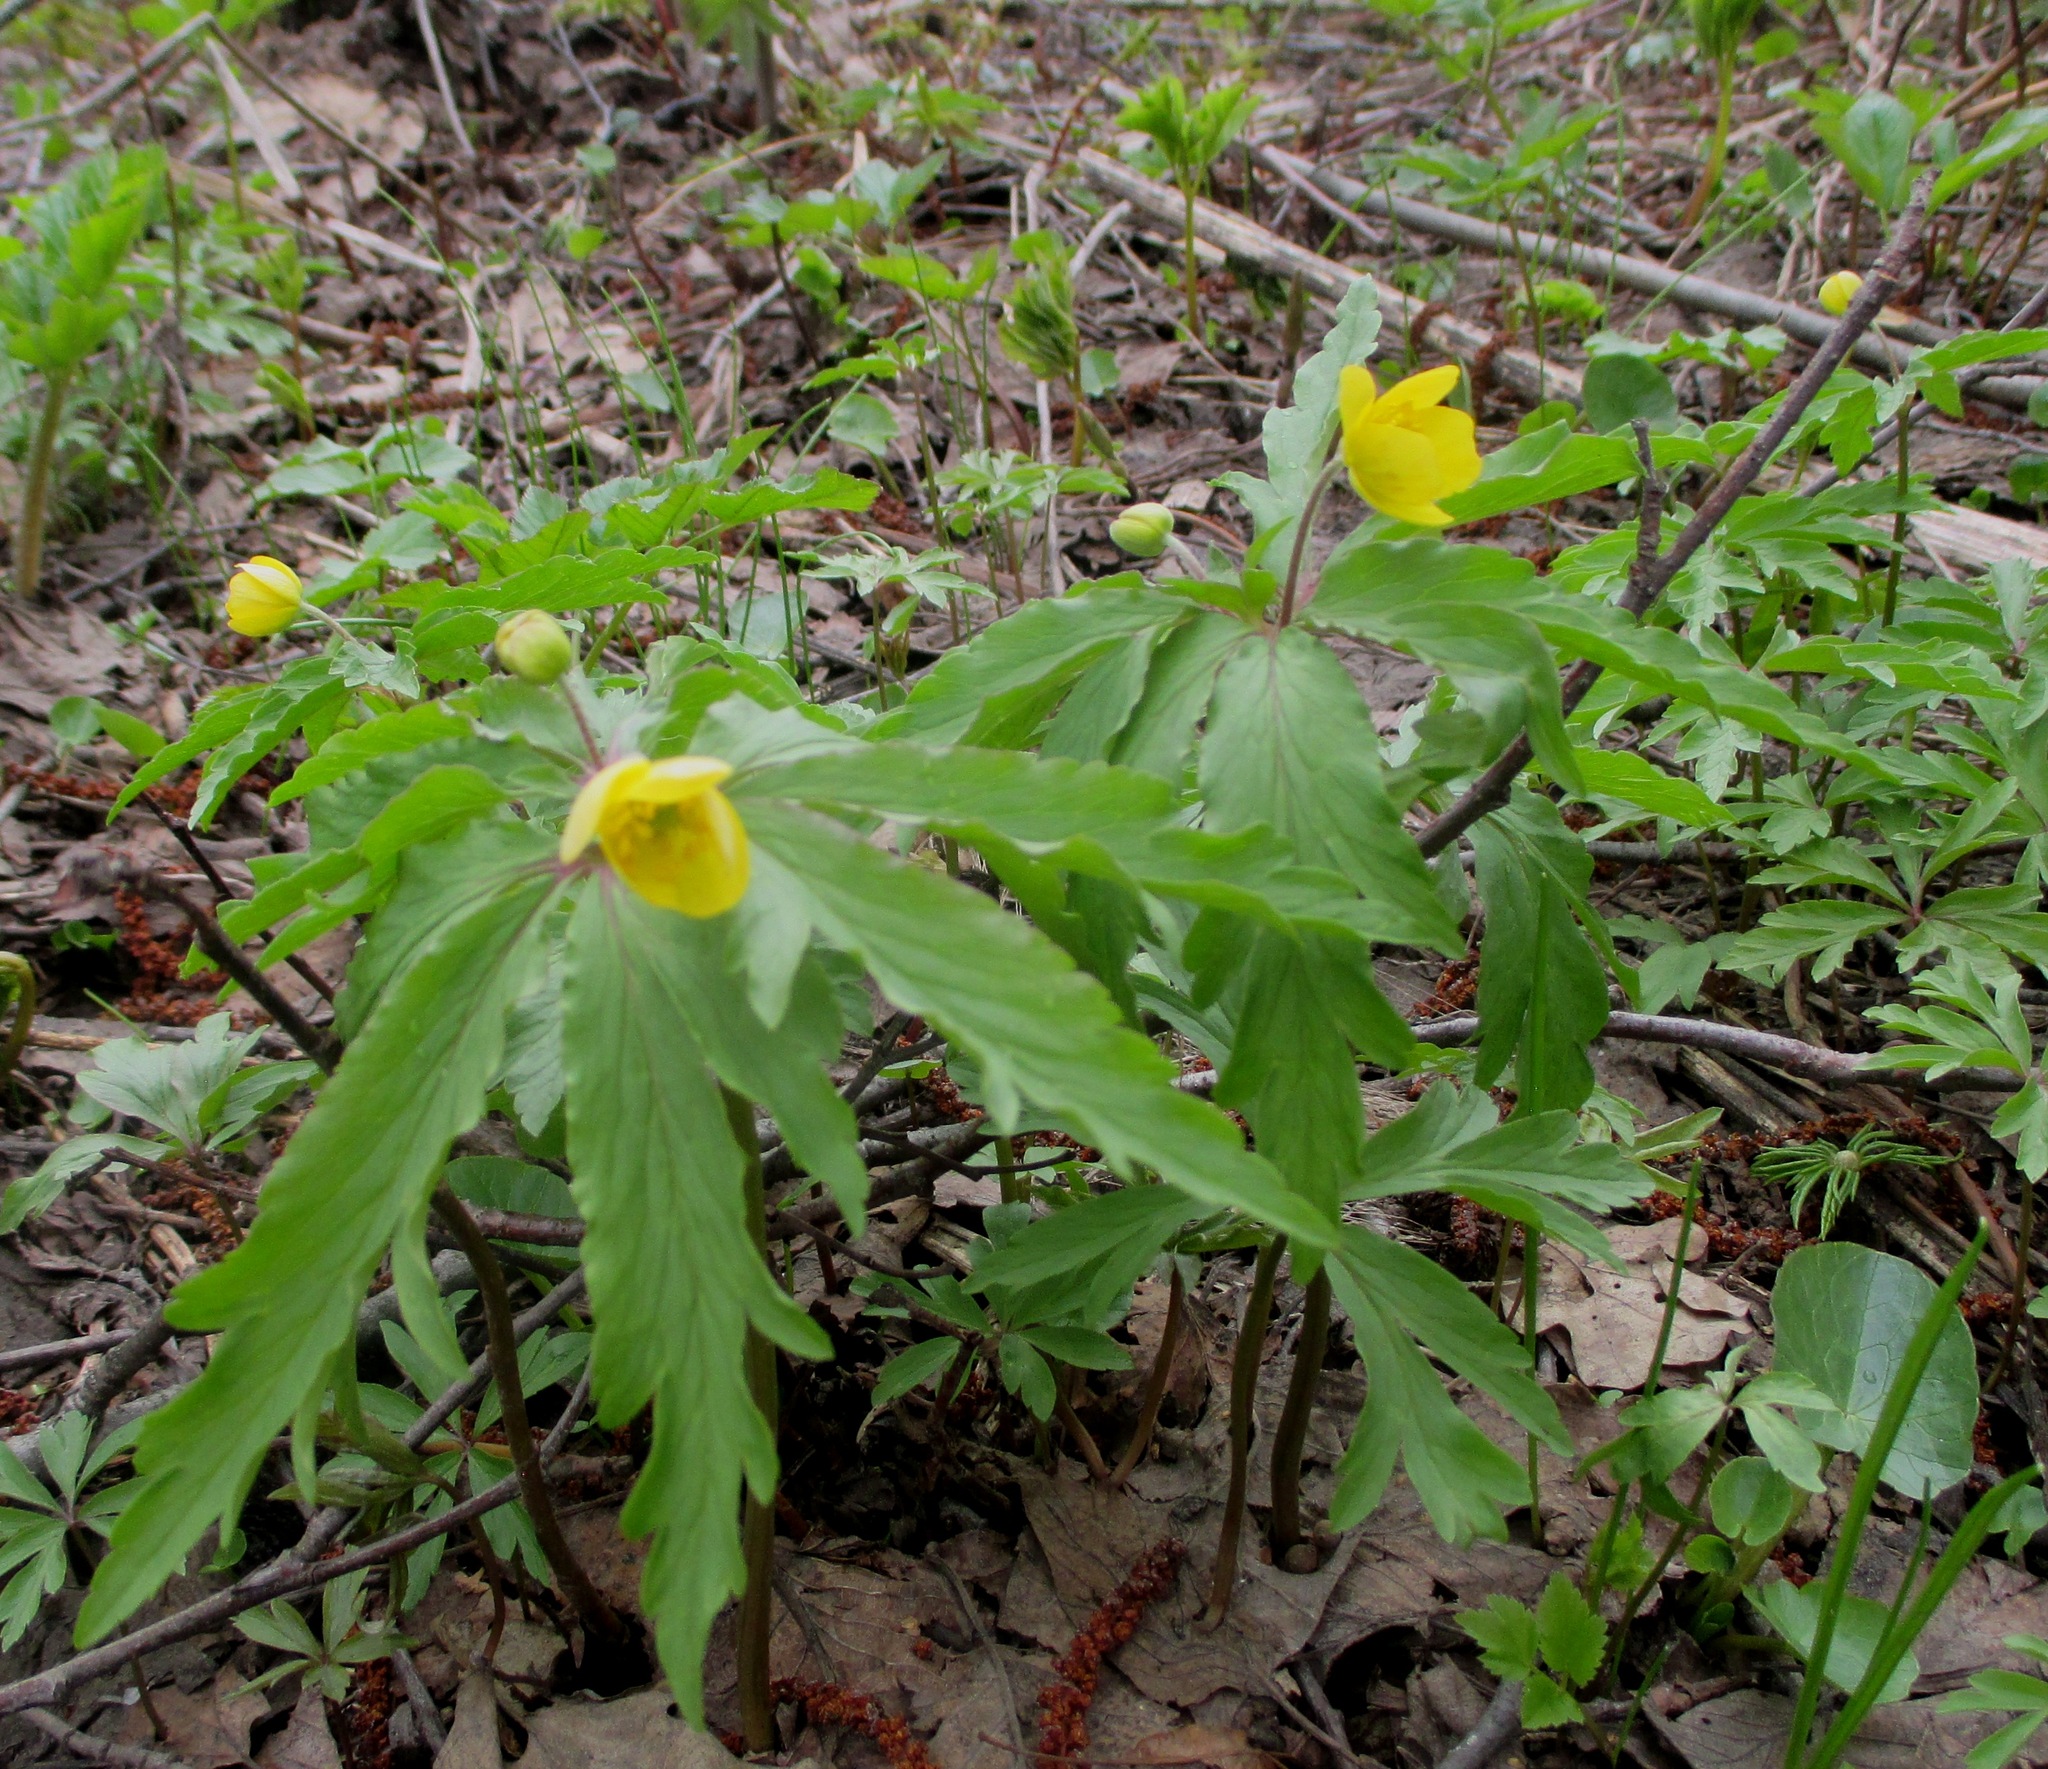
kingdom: Plantae
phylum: Tracheophyta
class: Magnoliopsida
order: Ranunculales
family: Ranunculaceae
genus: Anemone
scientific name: Anemone ranunculoides
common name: Yellow anemone
